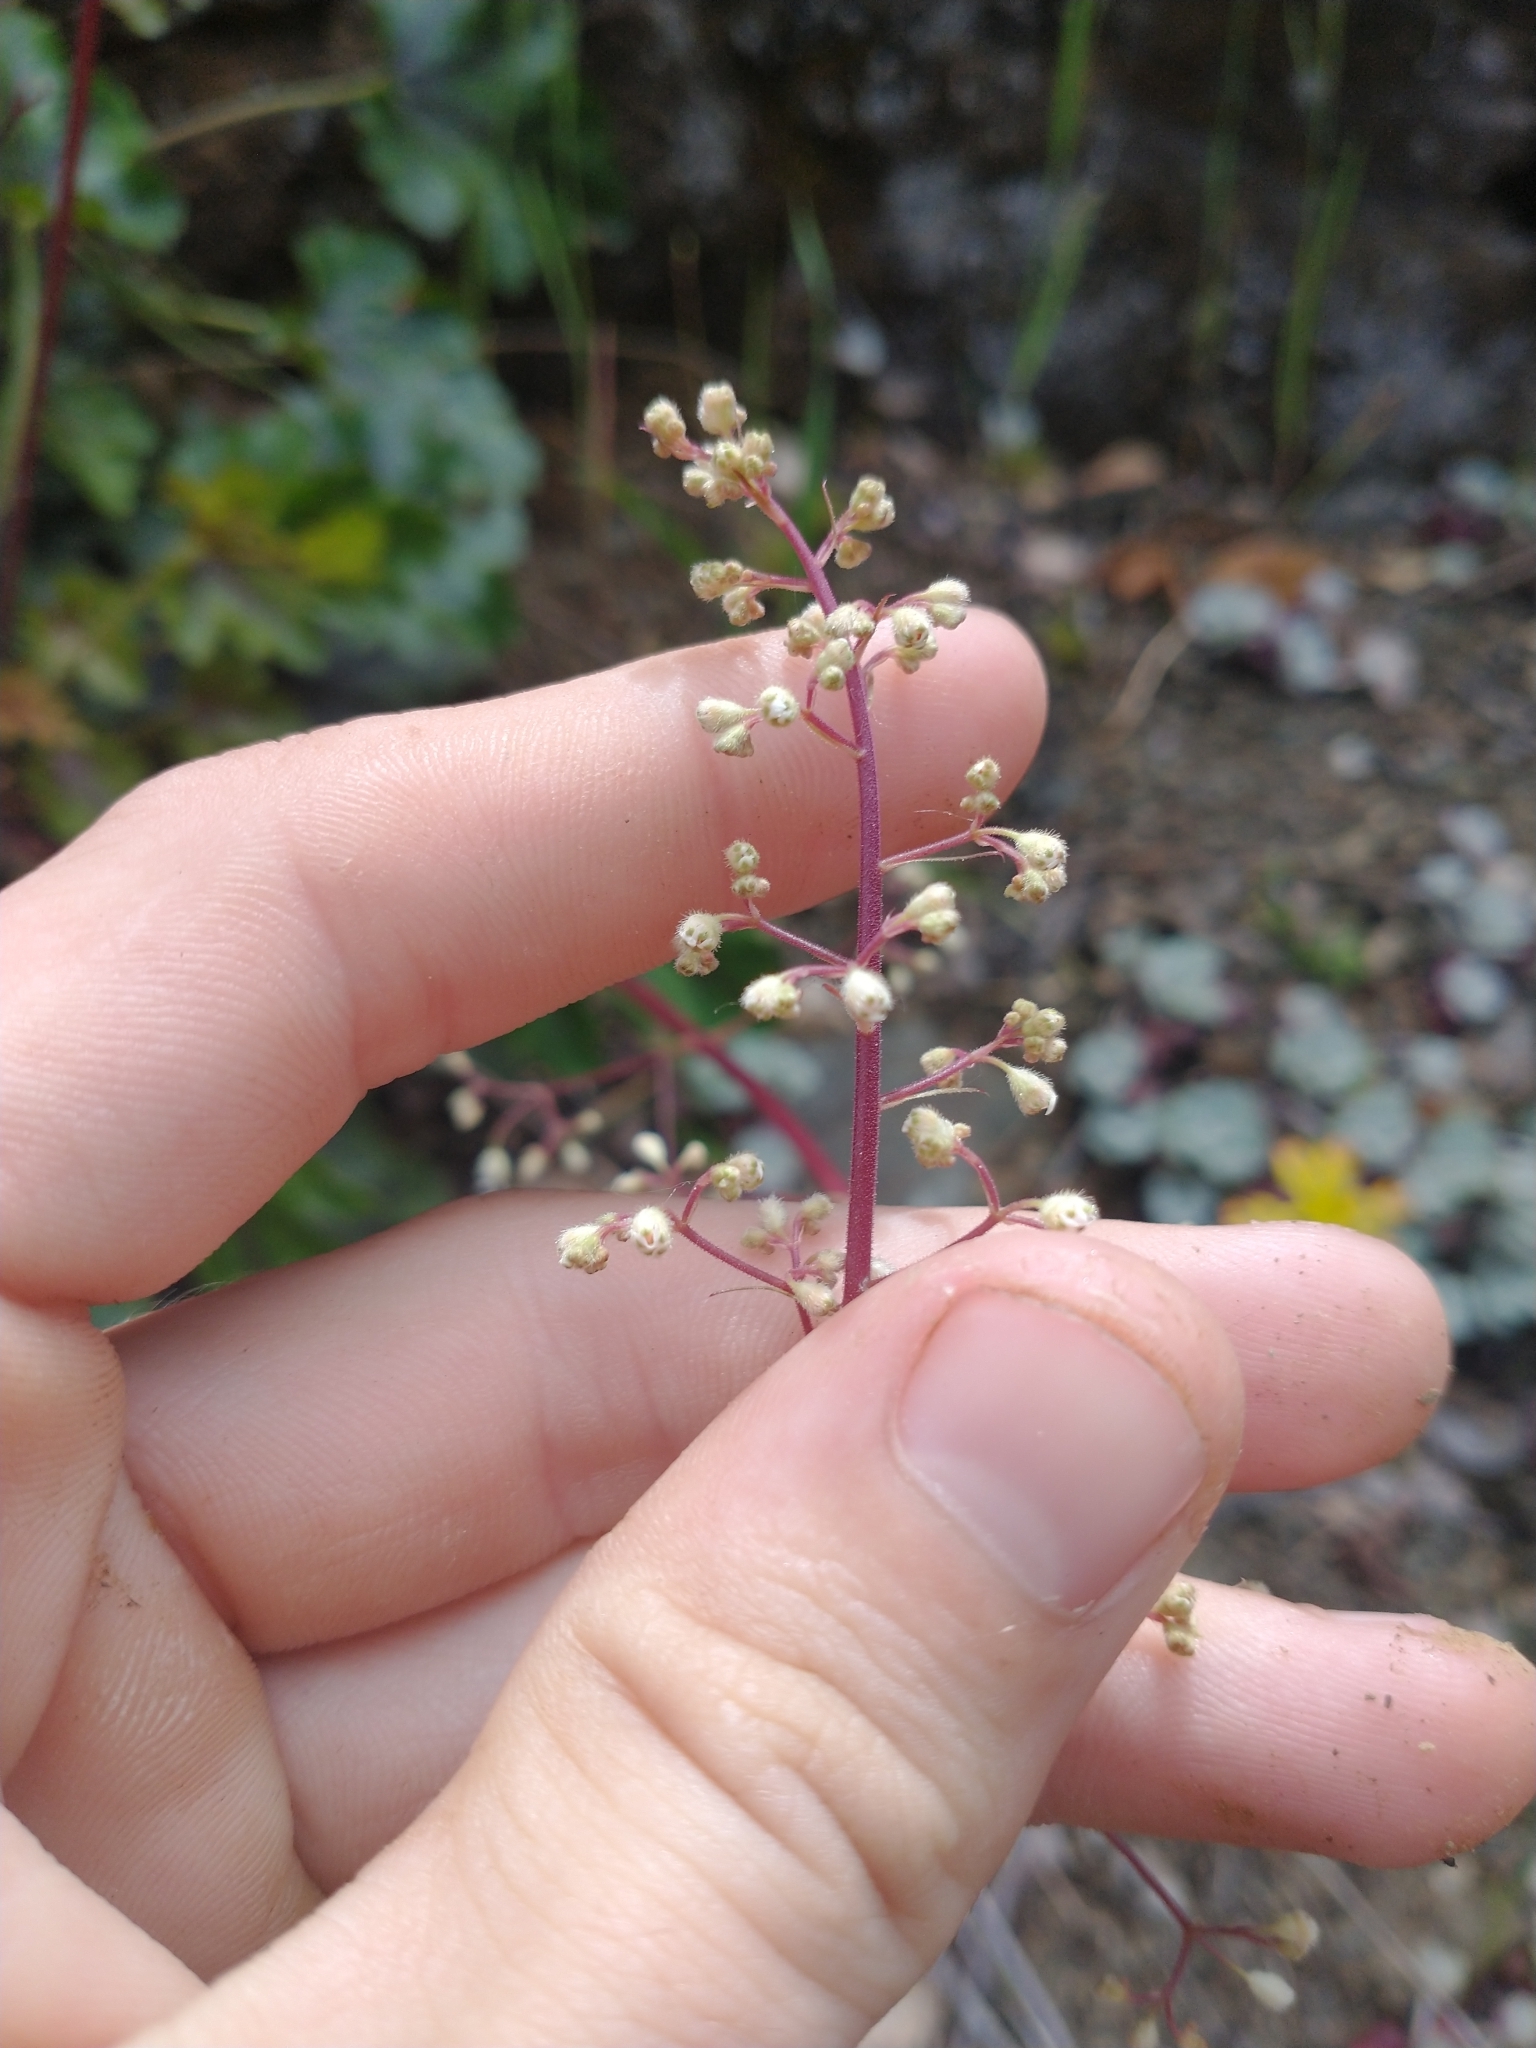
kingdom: Plantae
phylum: Tracheophyta
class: Magnoliopsida
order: Saxifragales
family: Saxifragaceae
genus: Heuchera
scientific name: Heuchera micrantha
